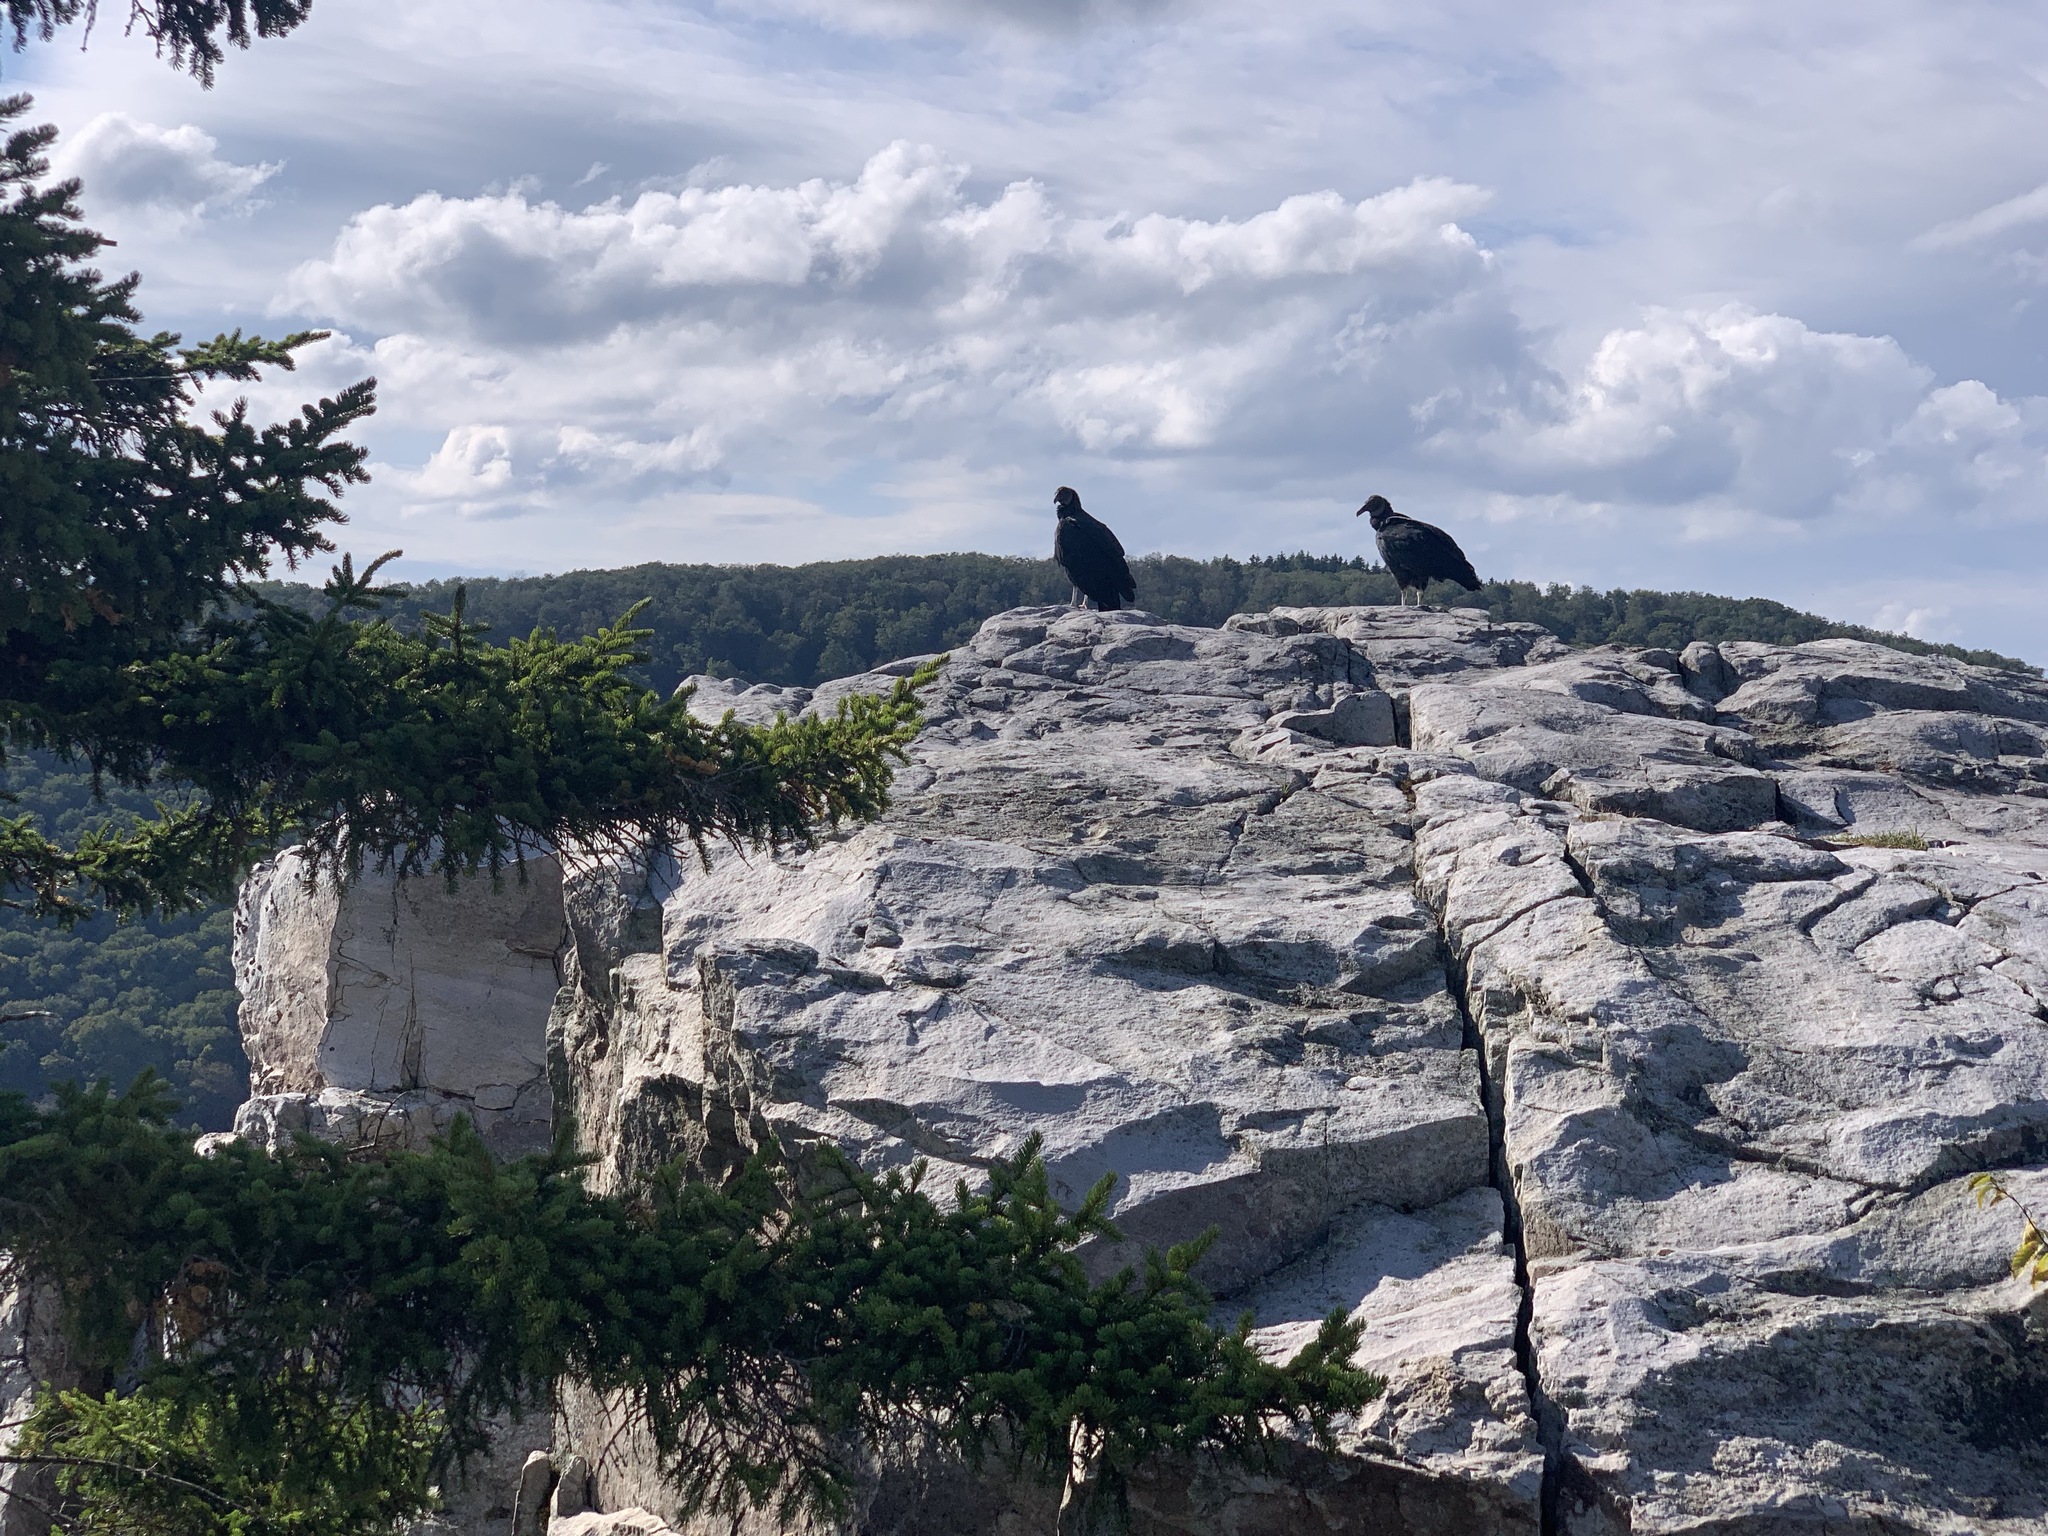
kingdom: Animalia
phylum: Chordata
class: Aves
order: Accipitriformes
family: Cathartidae
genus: Coragyps
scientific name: Coragyps atratus
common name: Black vulture
